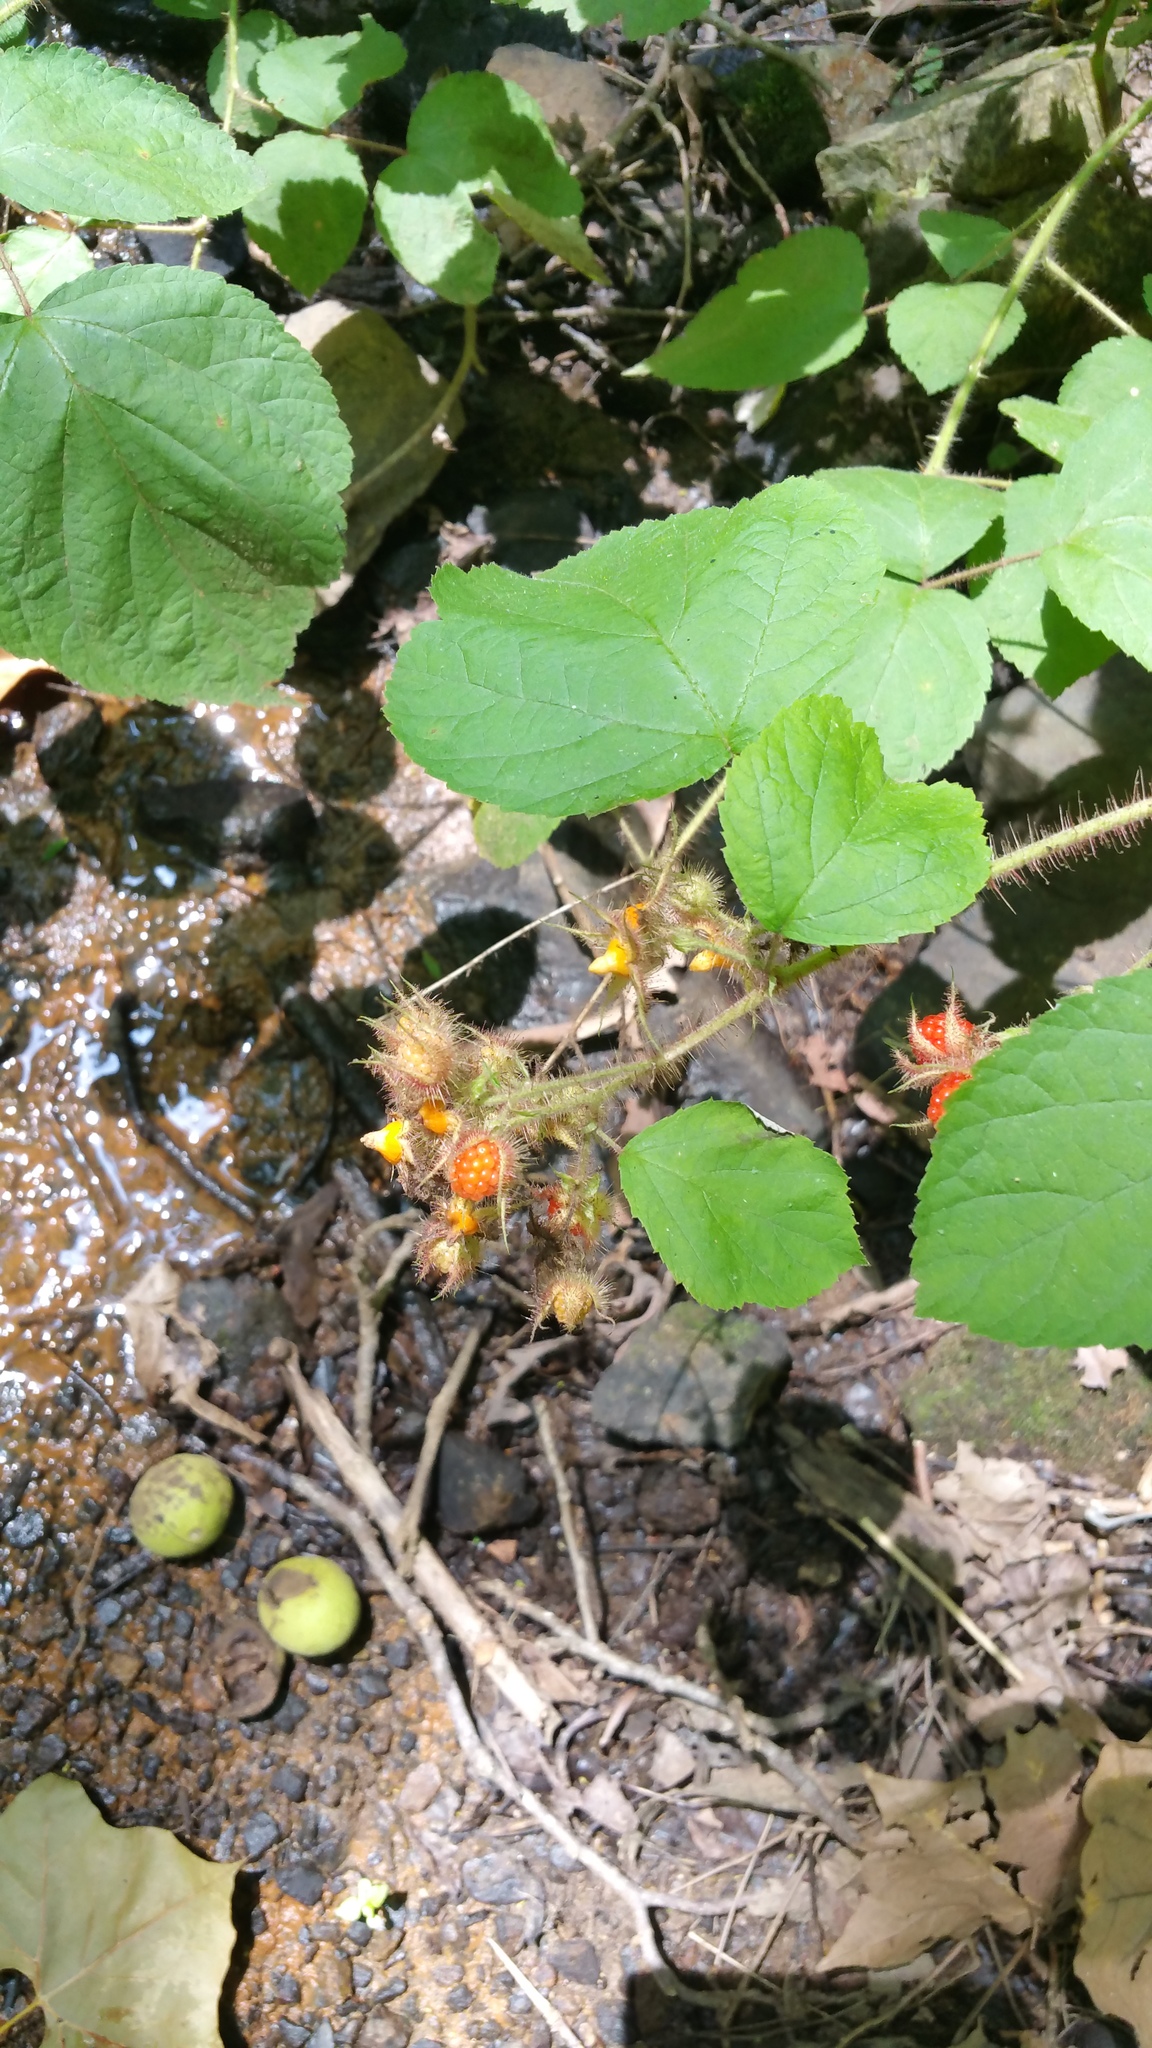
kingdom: Plantae
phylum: Tracheophyta
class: Magnoliopsida
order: Rosales
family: Rosaceae
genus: Rubus
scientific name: Rubus phoenicolasius
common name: Japanese wineberry
